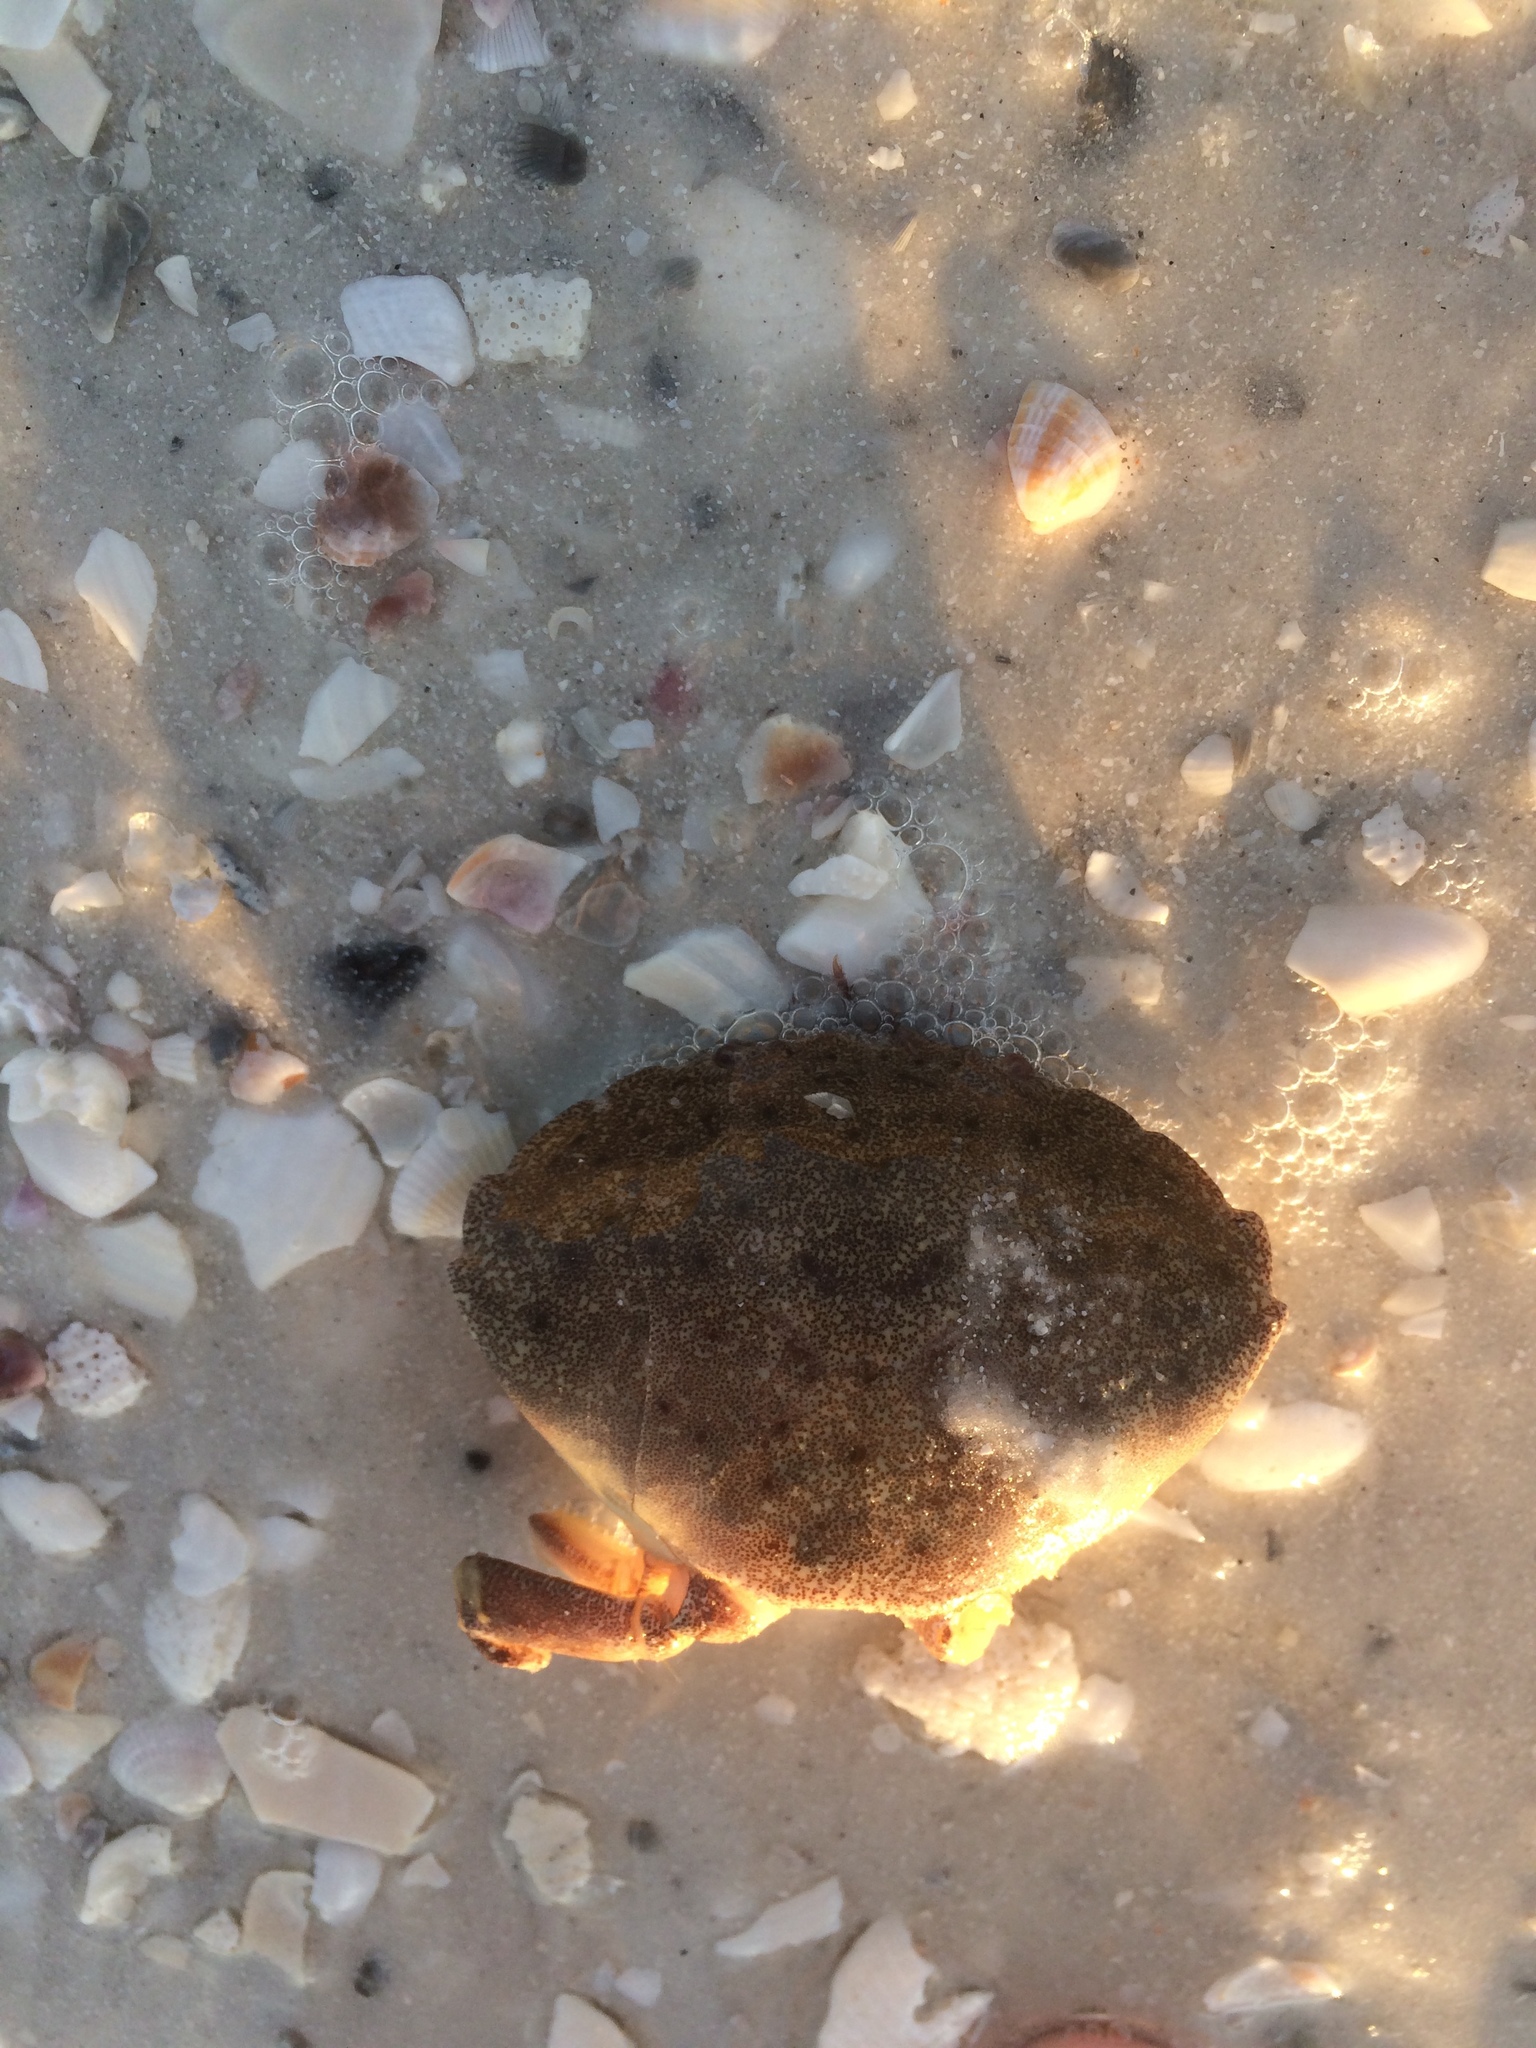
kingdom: Animalia
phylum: Arthropoda
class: Malacostraca
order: Decapoda
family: Menippidae
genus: Menippe
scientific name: Menippe mercenaria
